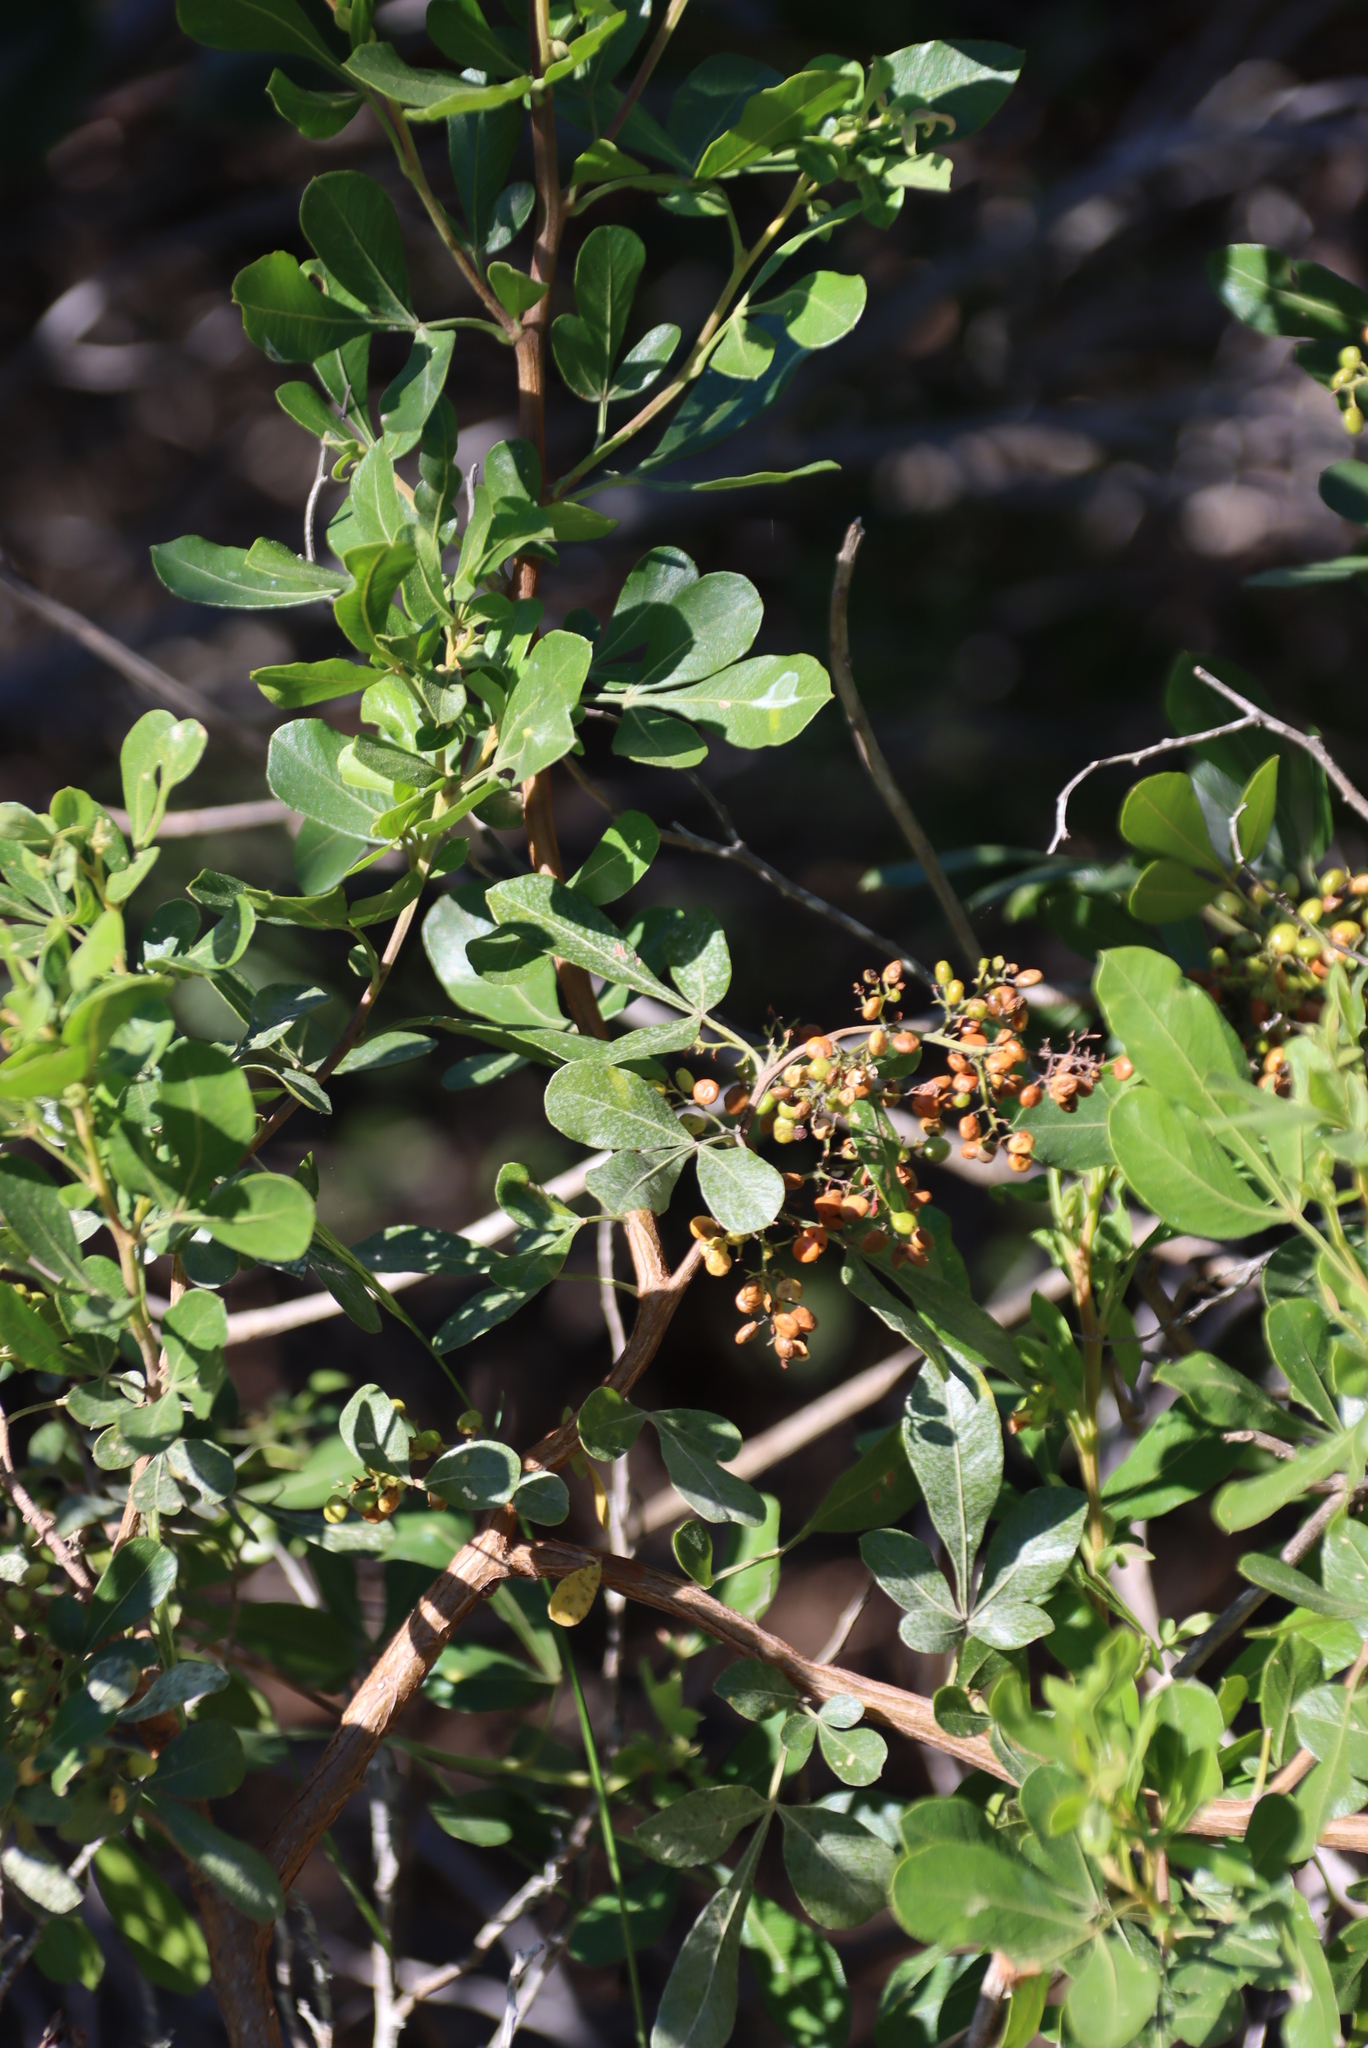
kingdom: Plantae
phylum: Tracheophyta
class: Magnoliopsida
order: Sapindales
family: Anacardiaceae
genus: Searsia
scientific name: Searsia pallens
